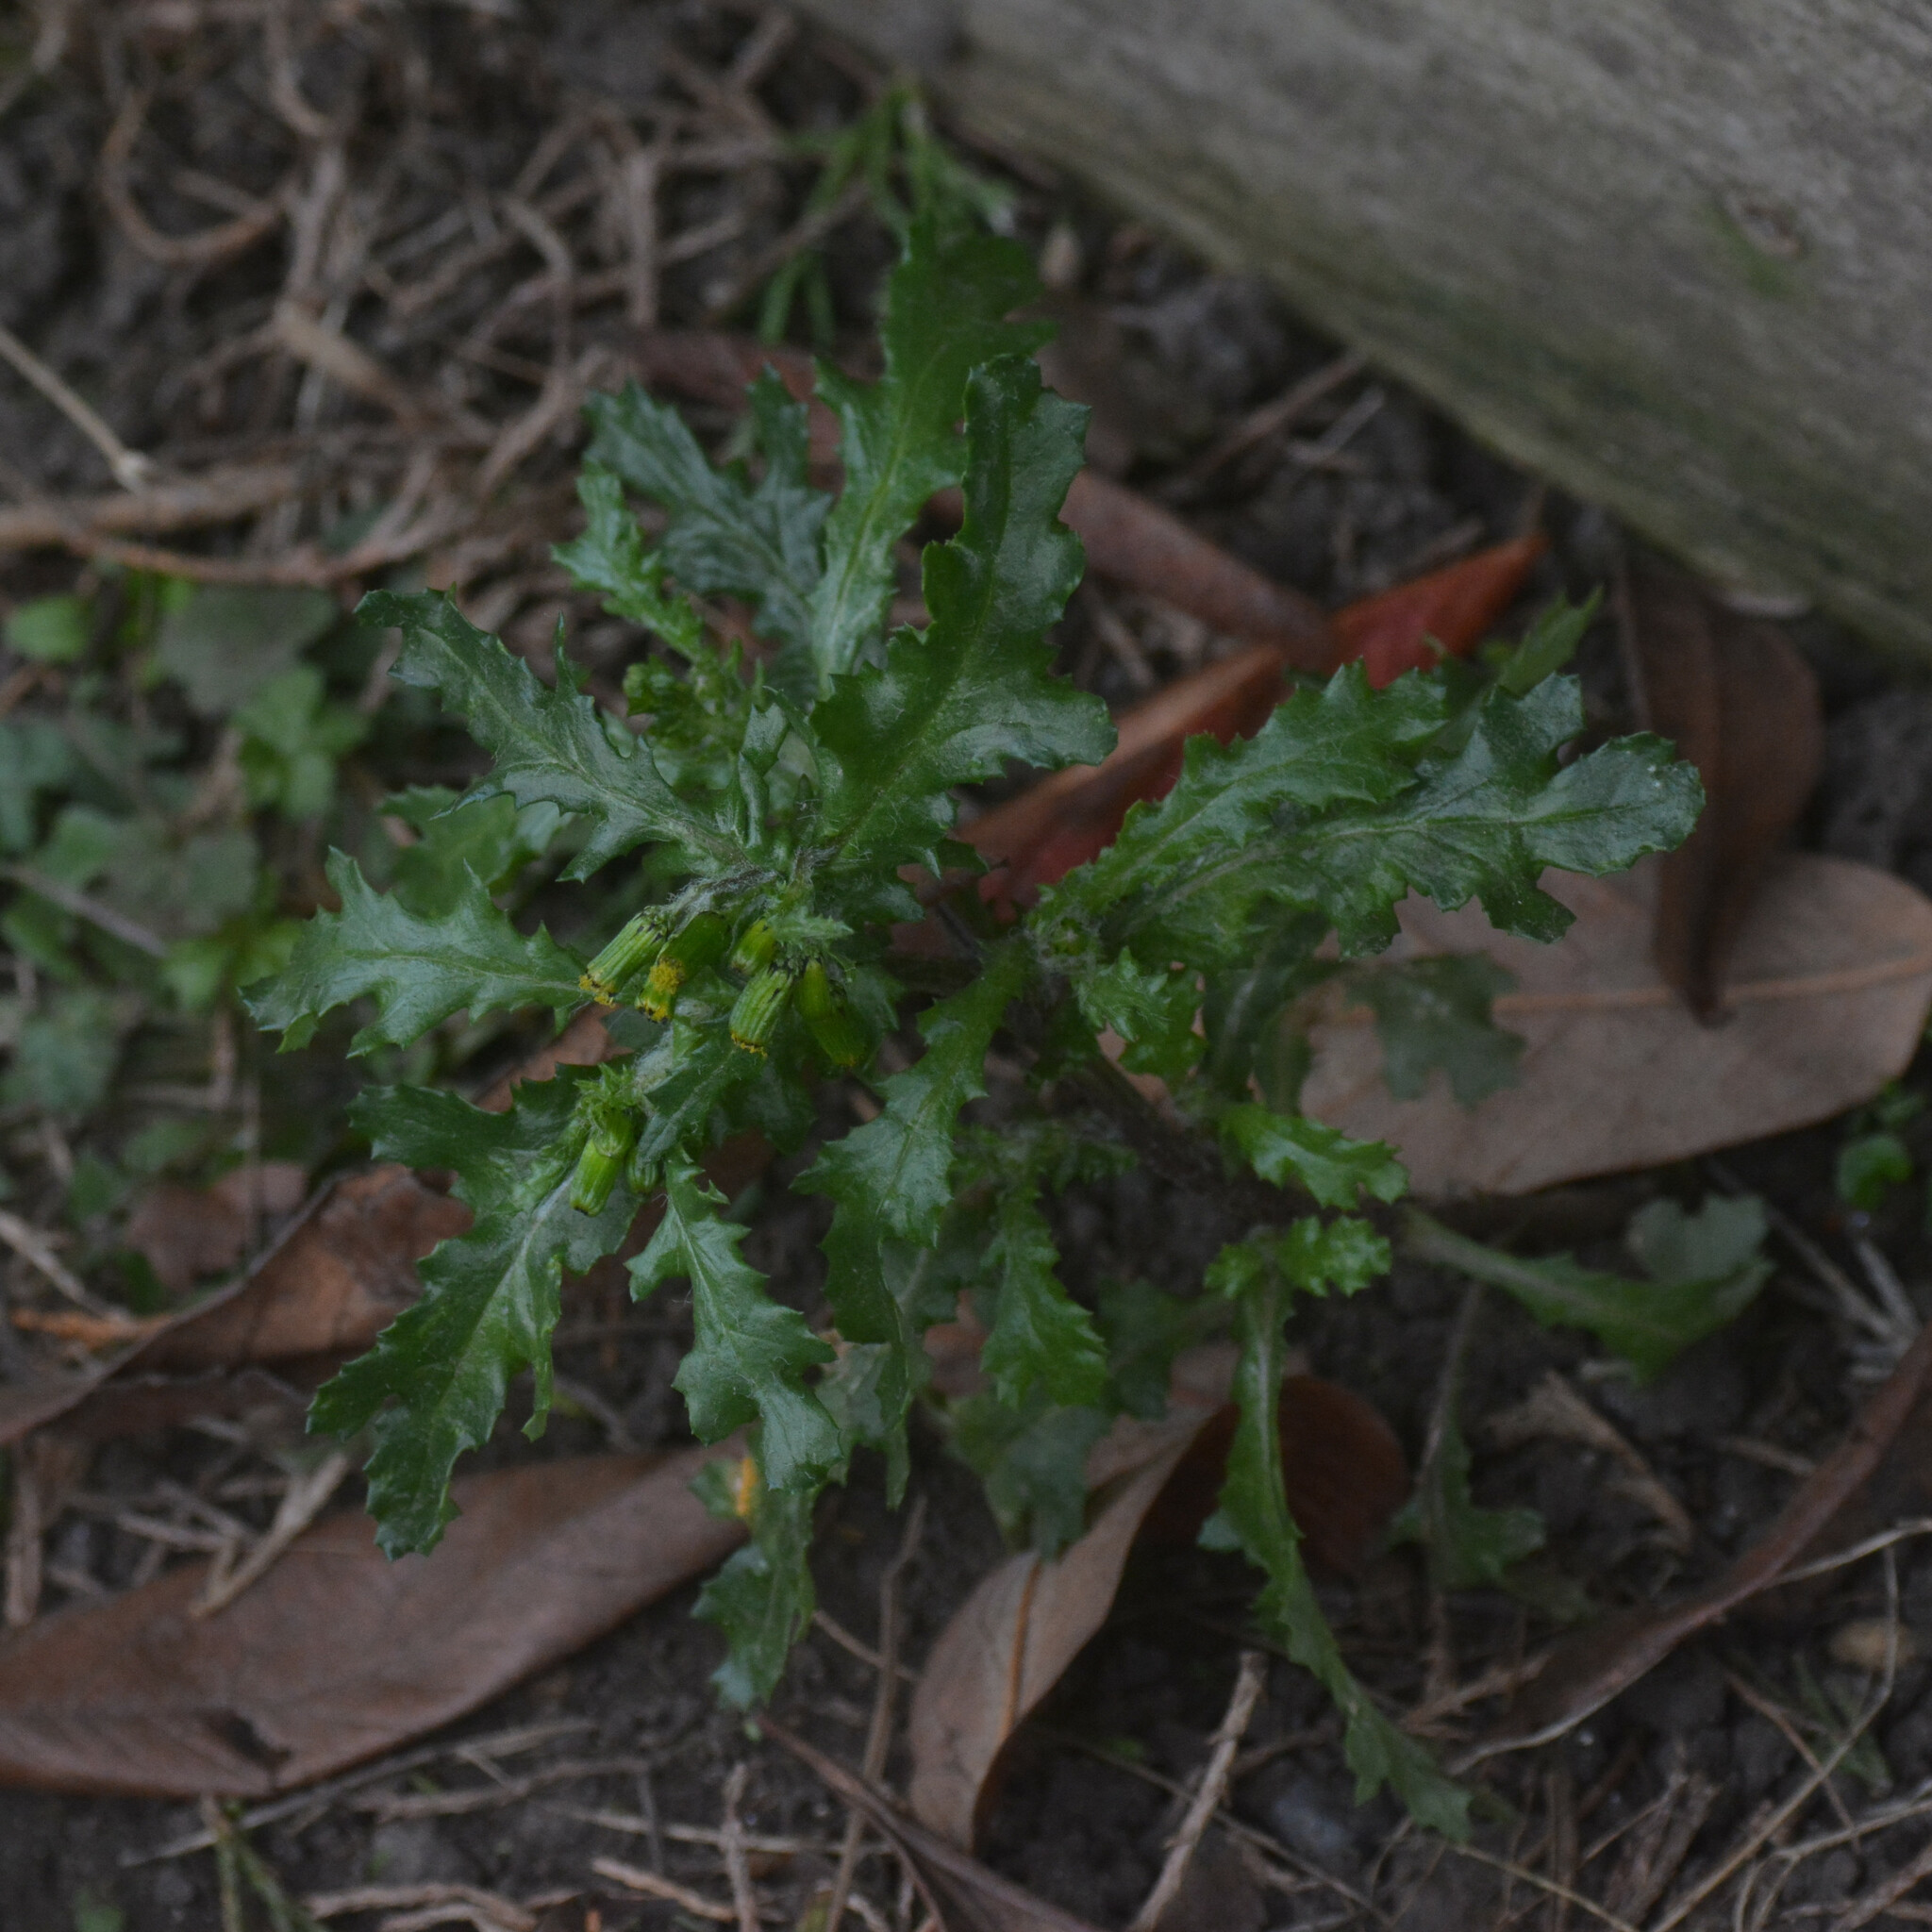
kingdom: Plantae
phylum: Tracheophyta
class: Magnoliopsida
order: Asterales
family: Asteraceae
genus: Senecio
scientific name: Senecio vulgaris
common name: Old-man-in-the-spring
